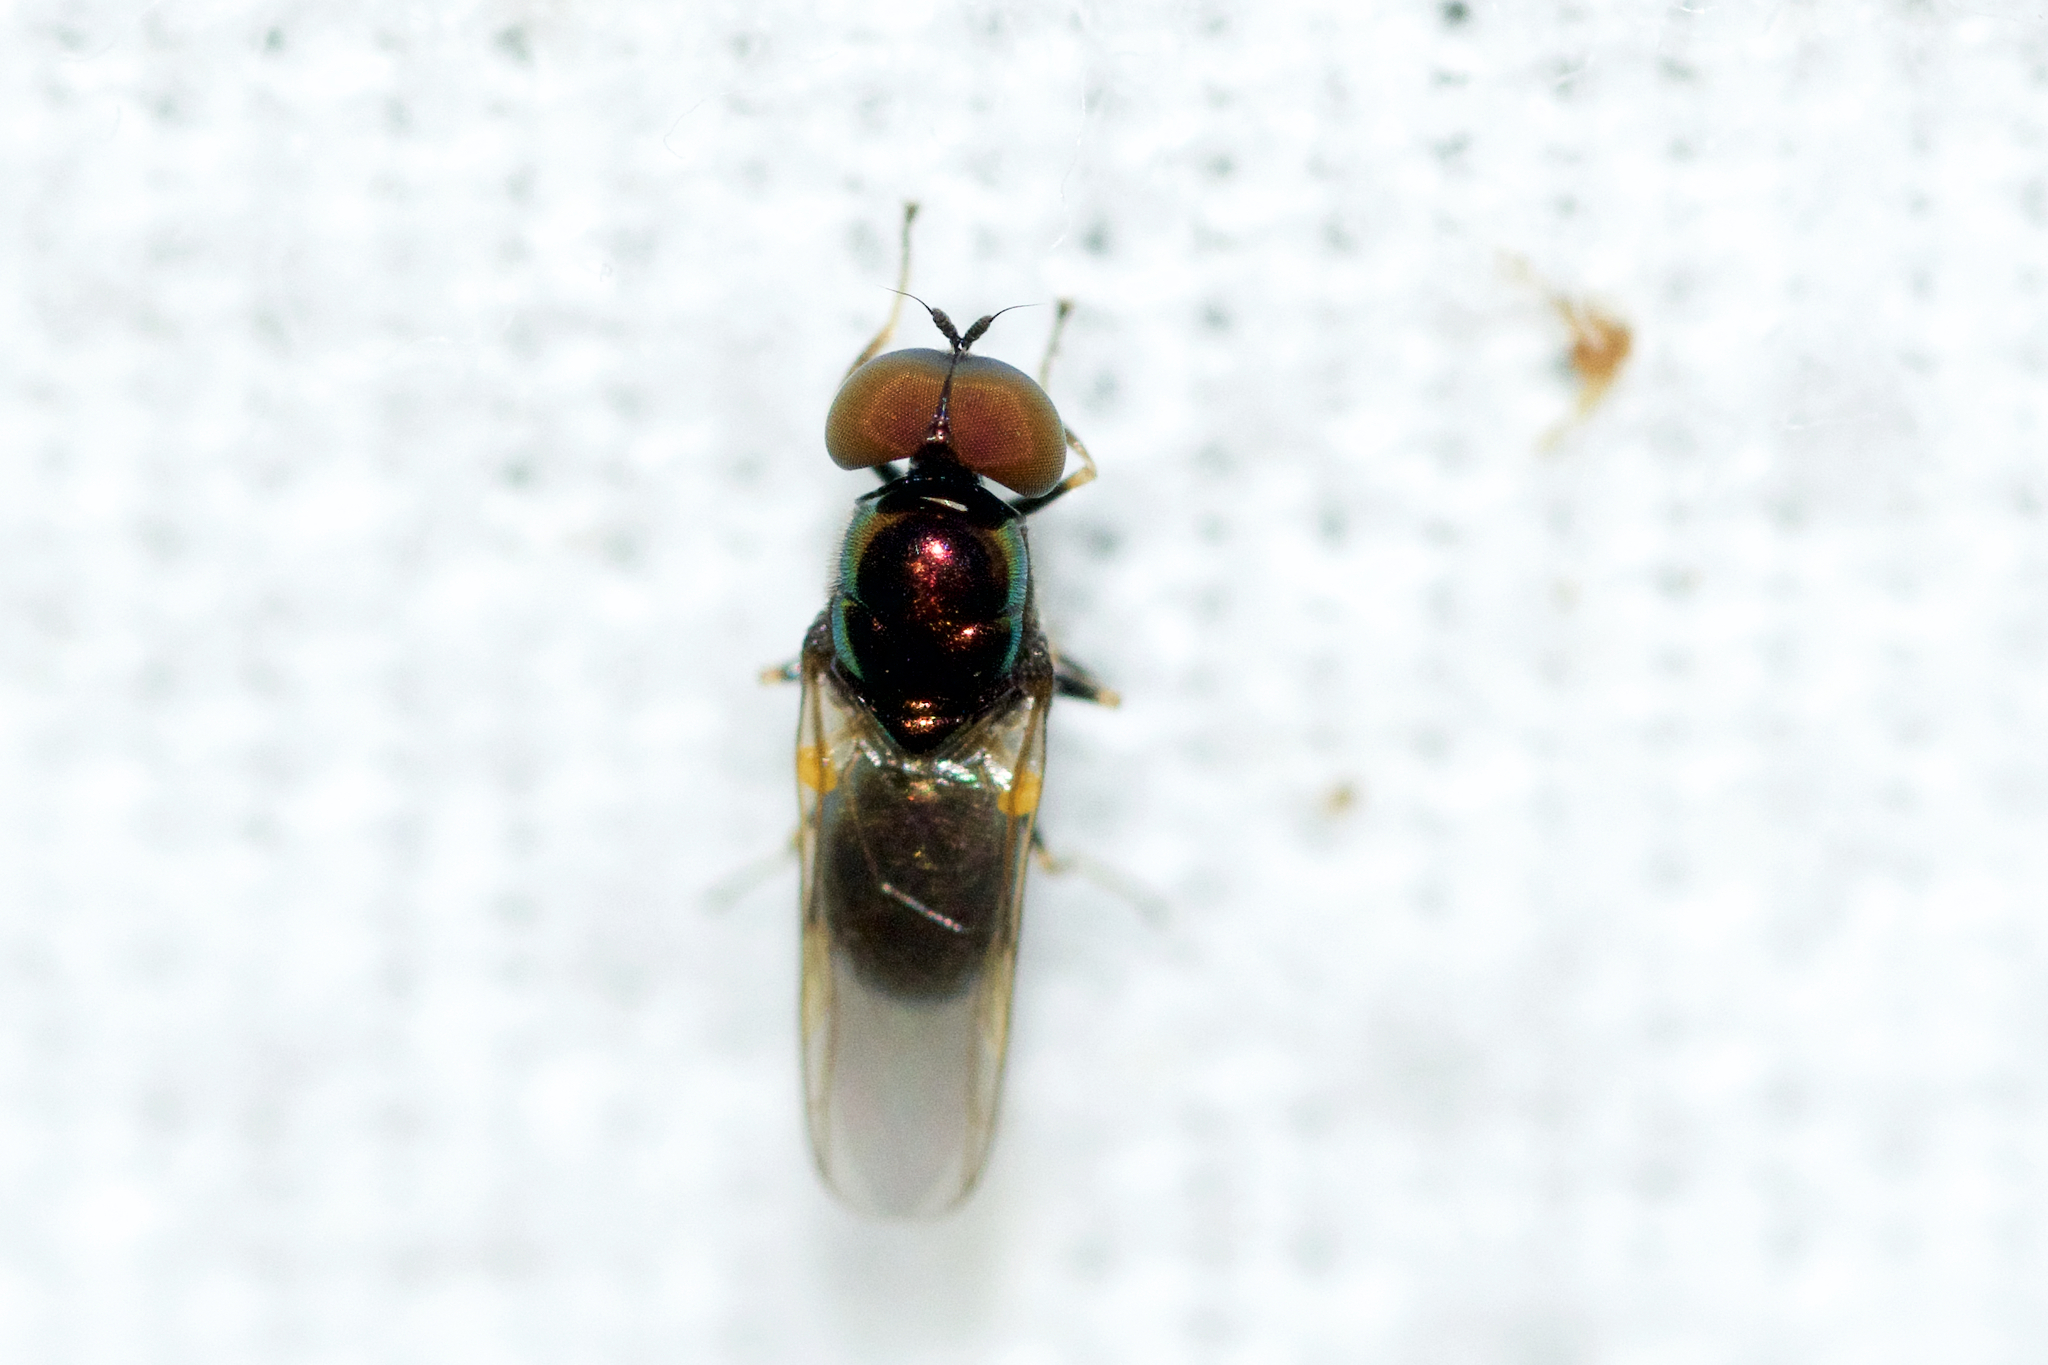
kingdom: Animalia
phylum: Arthropoda
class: Insecta
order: Diptera
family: Stratiomyidae
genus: Microchrysa
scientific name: Microchrysa polita
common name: Black-horned gem
